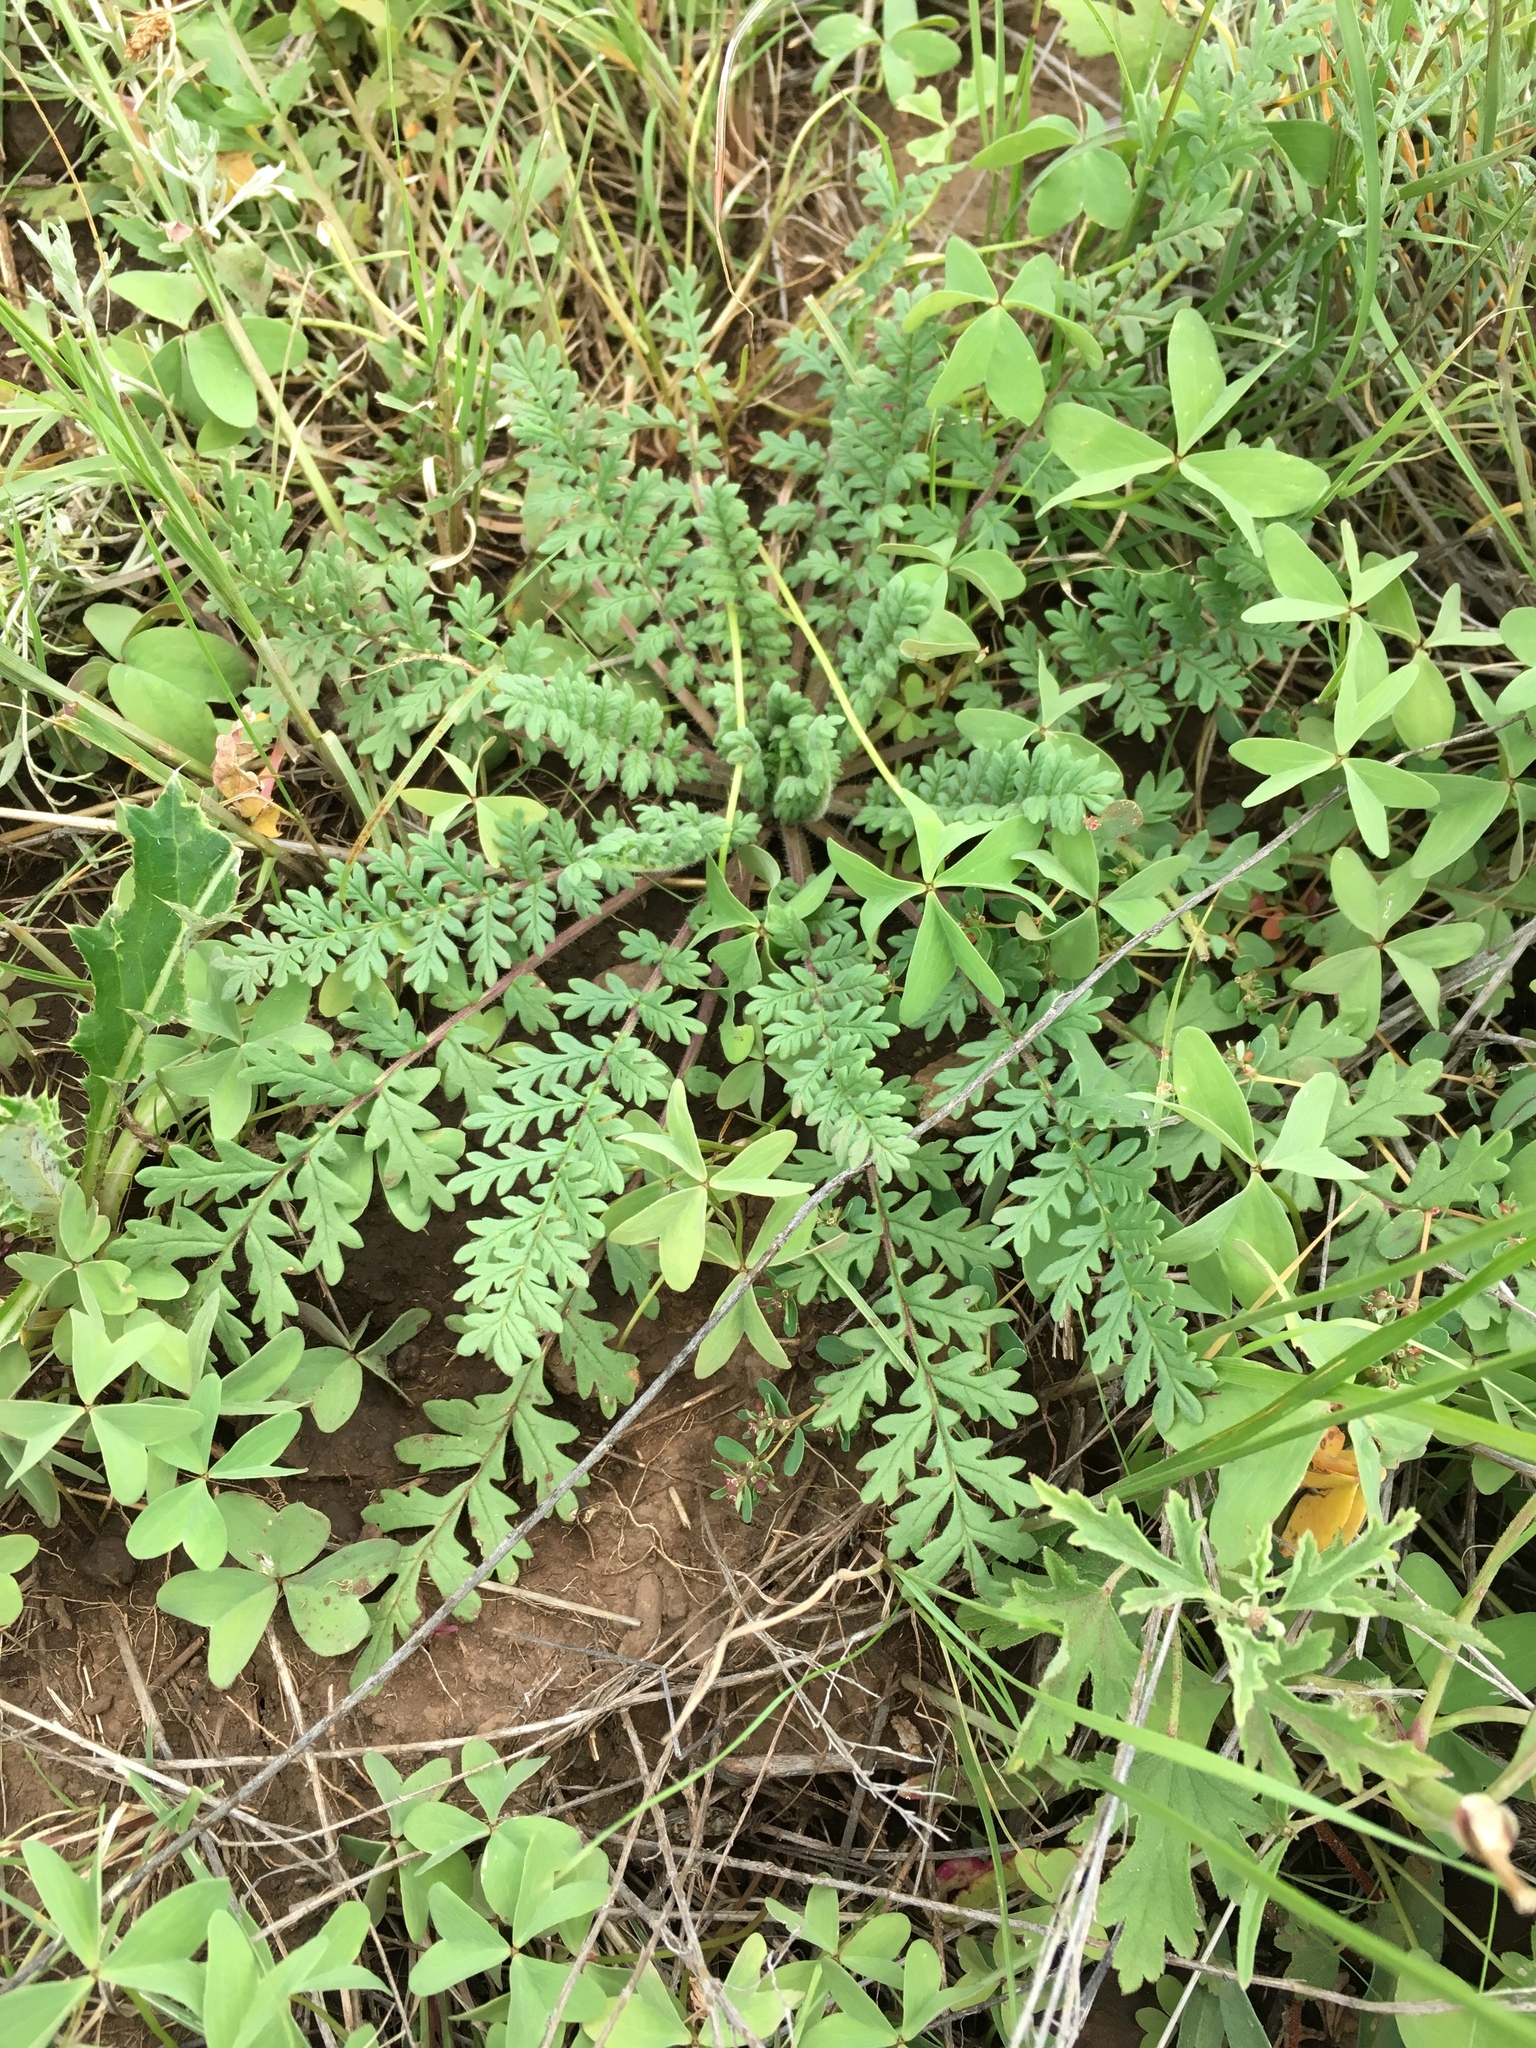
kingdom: Plantae
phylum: Tracheophyta
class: Magnoliopsida
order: Boraginales
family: Hydrophyllaceae
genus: Phacelia
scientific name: Phacelia alba
